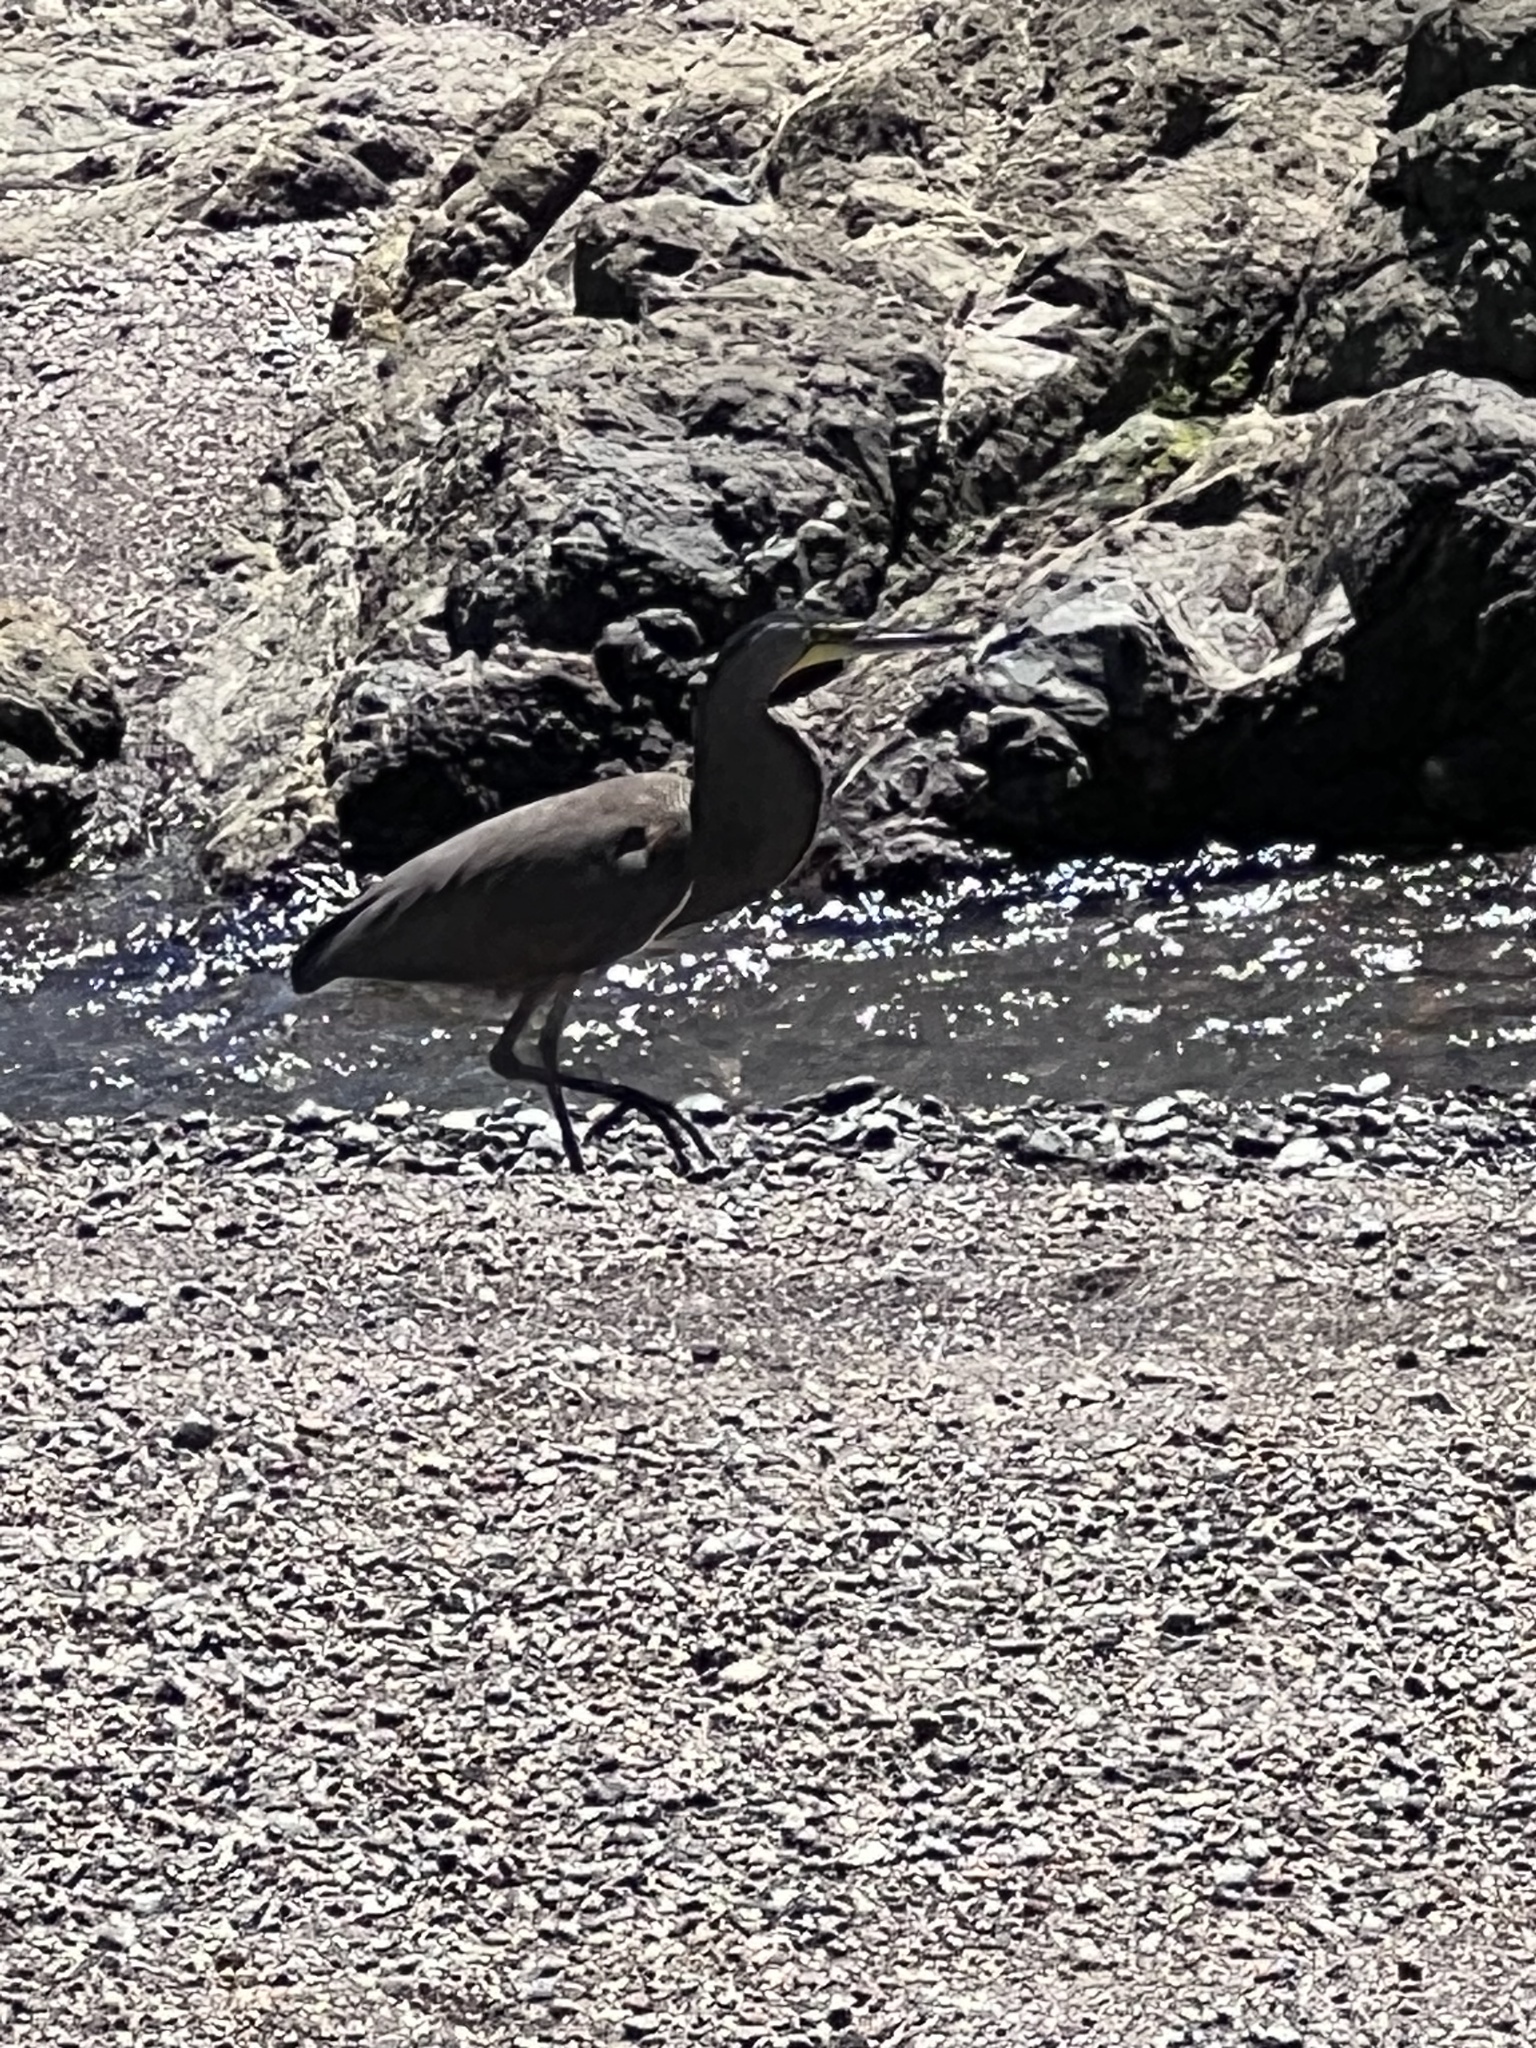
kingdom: Animalia
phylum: Chordata
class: Aves
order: Pelecaniformes
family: Ardeidae
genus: Tigrisoma
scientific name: Tigrisoma mexicanum
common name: Bare-throated tiger-heron
